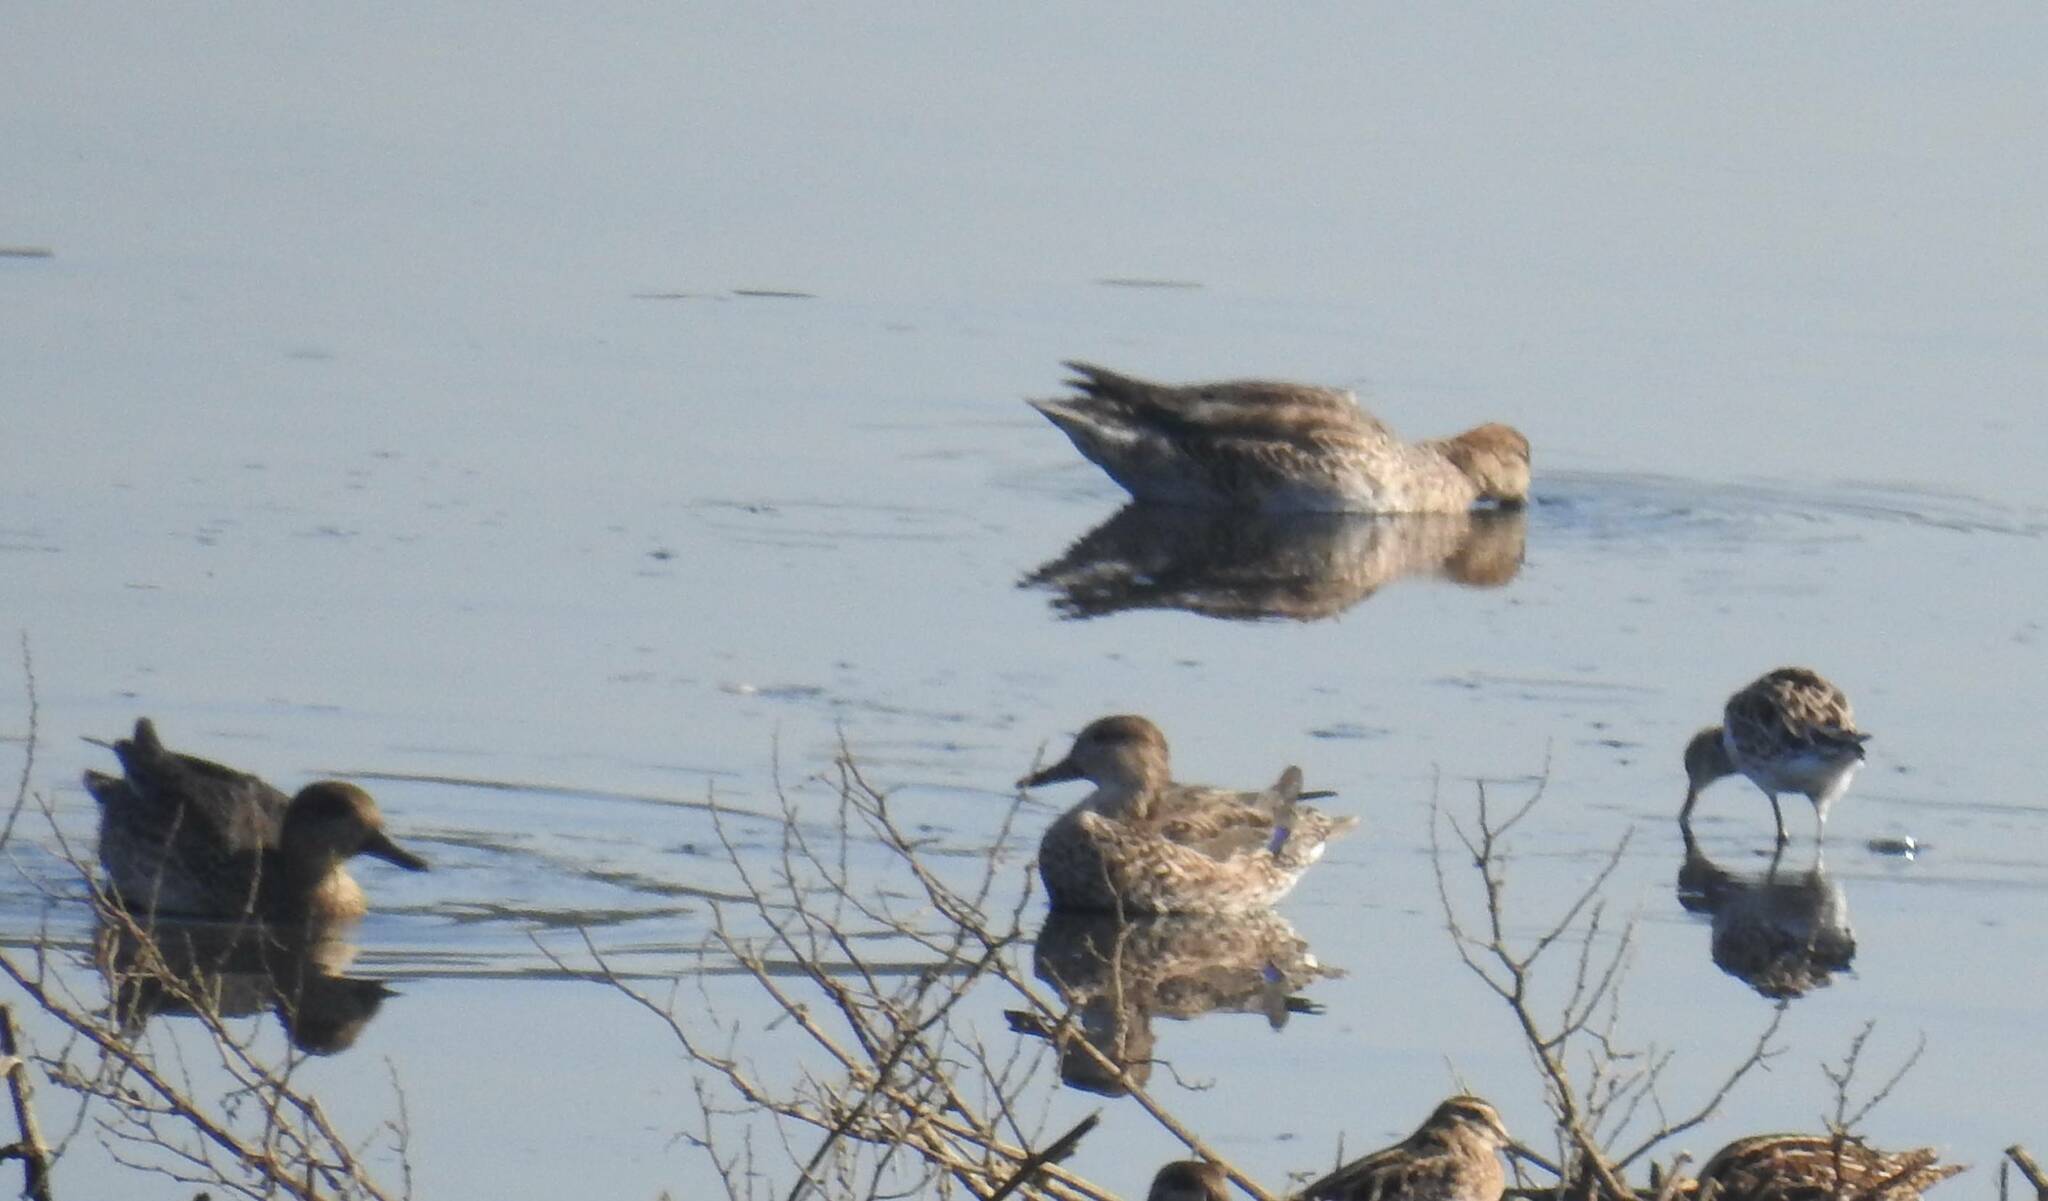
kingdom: Animalia
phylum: Chordata
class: Aves
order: Anseriformes
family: Anatidae
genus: Anas
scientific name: Anas crecca
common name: Eurasian teal
